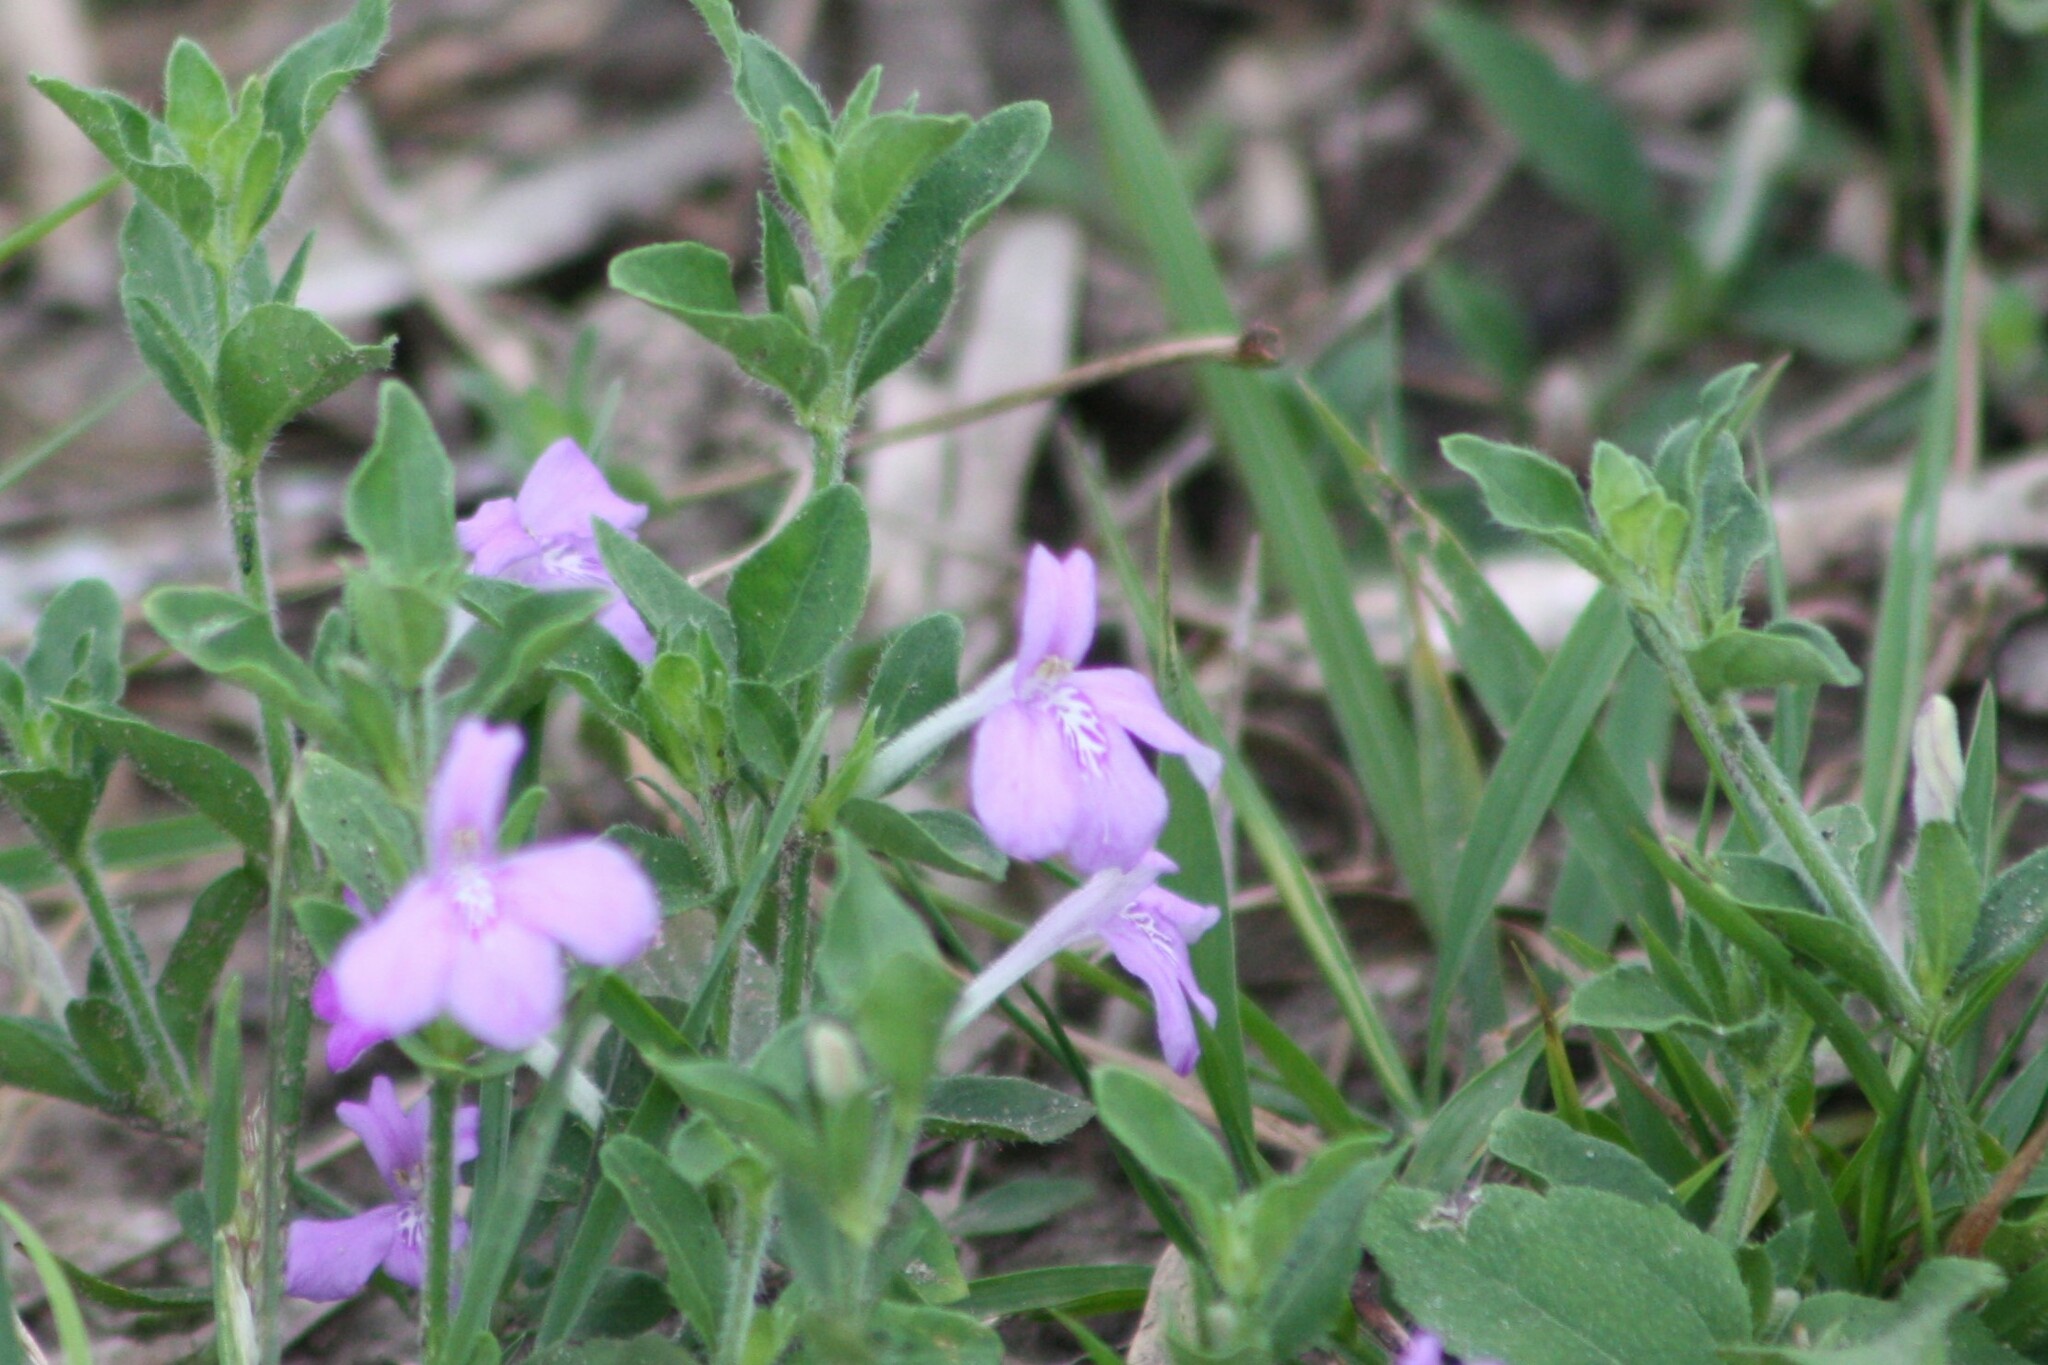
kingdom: Plantae
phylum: Tracheophyta
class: Magnoliopsida
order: Lamiales
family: Acanthaceae
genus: Justicia
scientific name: Justicia pilosella
